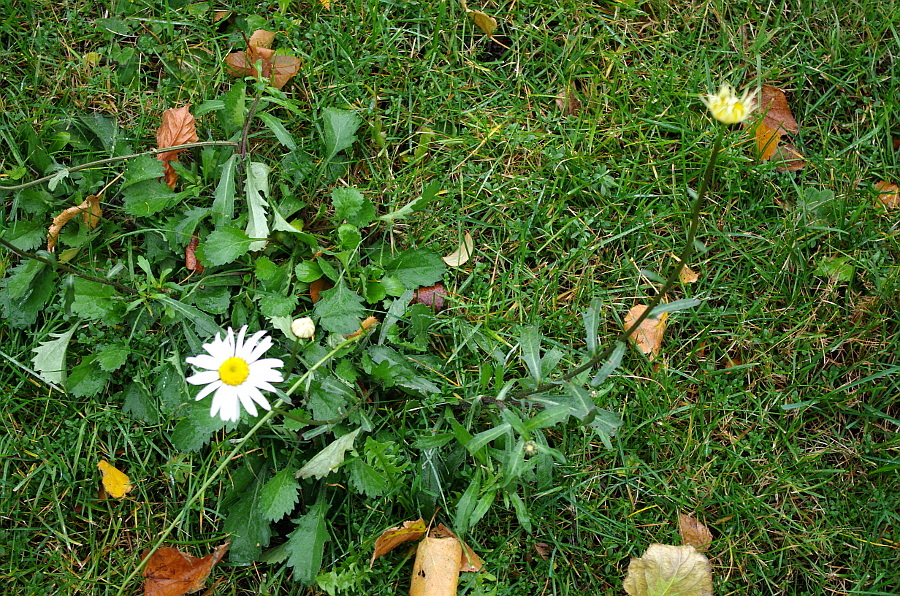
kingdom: Plantae
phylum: Tracheophyta
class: Magnoliopsida
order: Asterales
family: Asteraceae
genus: Leucanthemum
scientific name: Leucanthemum vulgare
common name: Oxeye daisy
